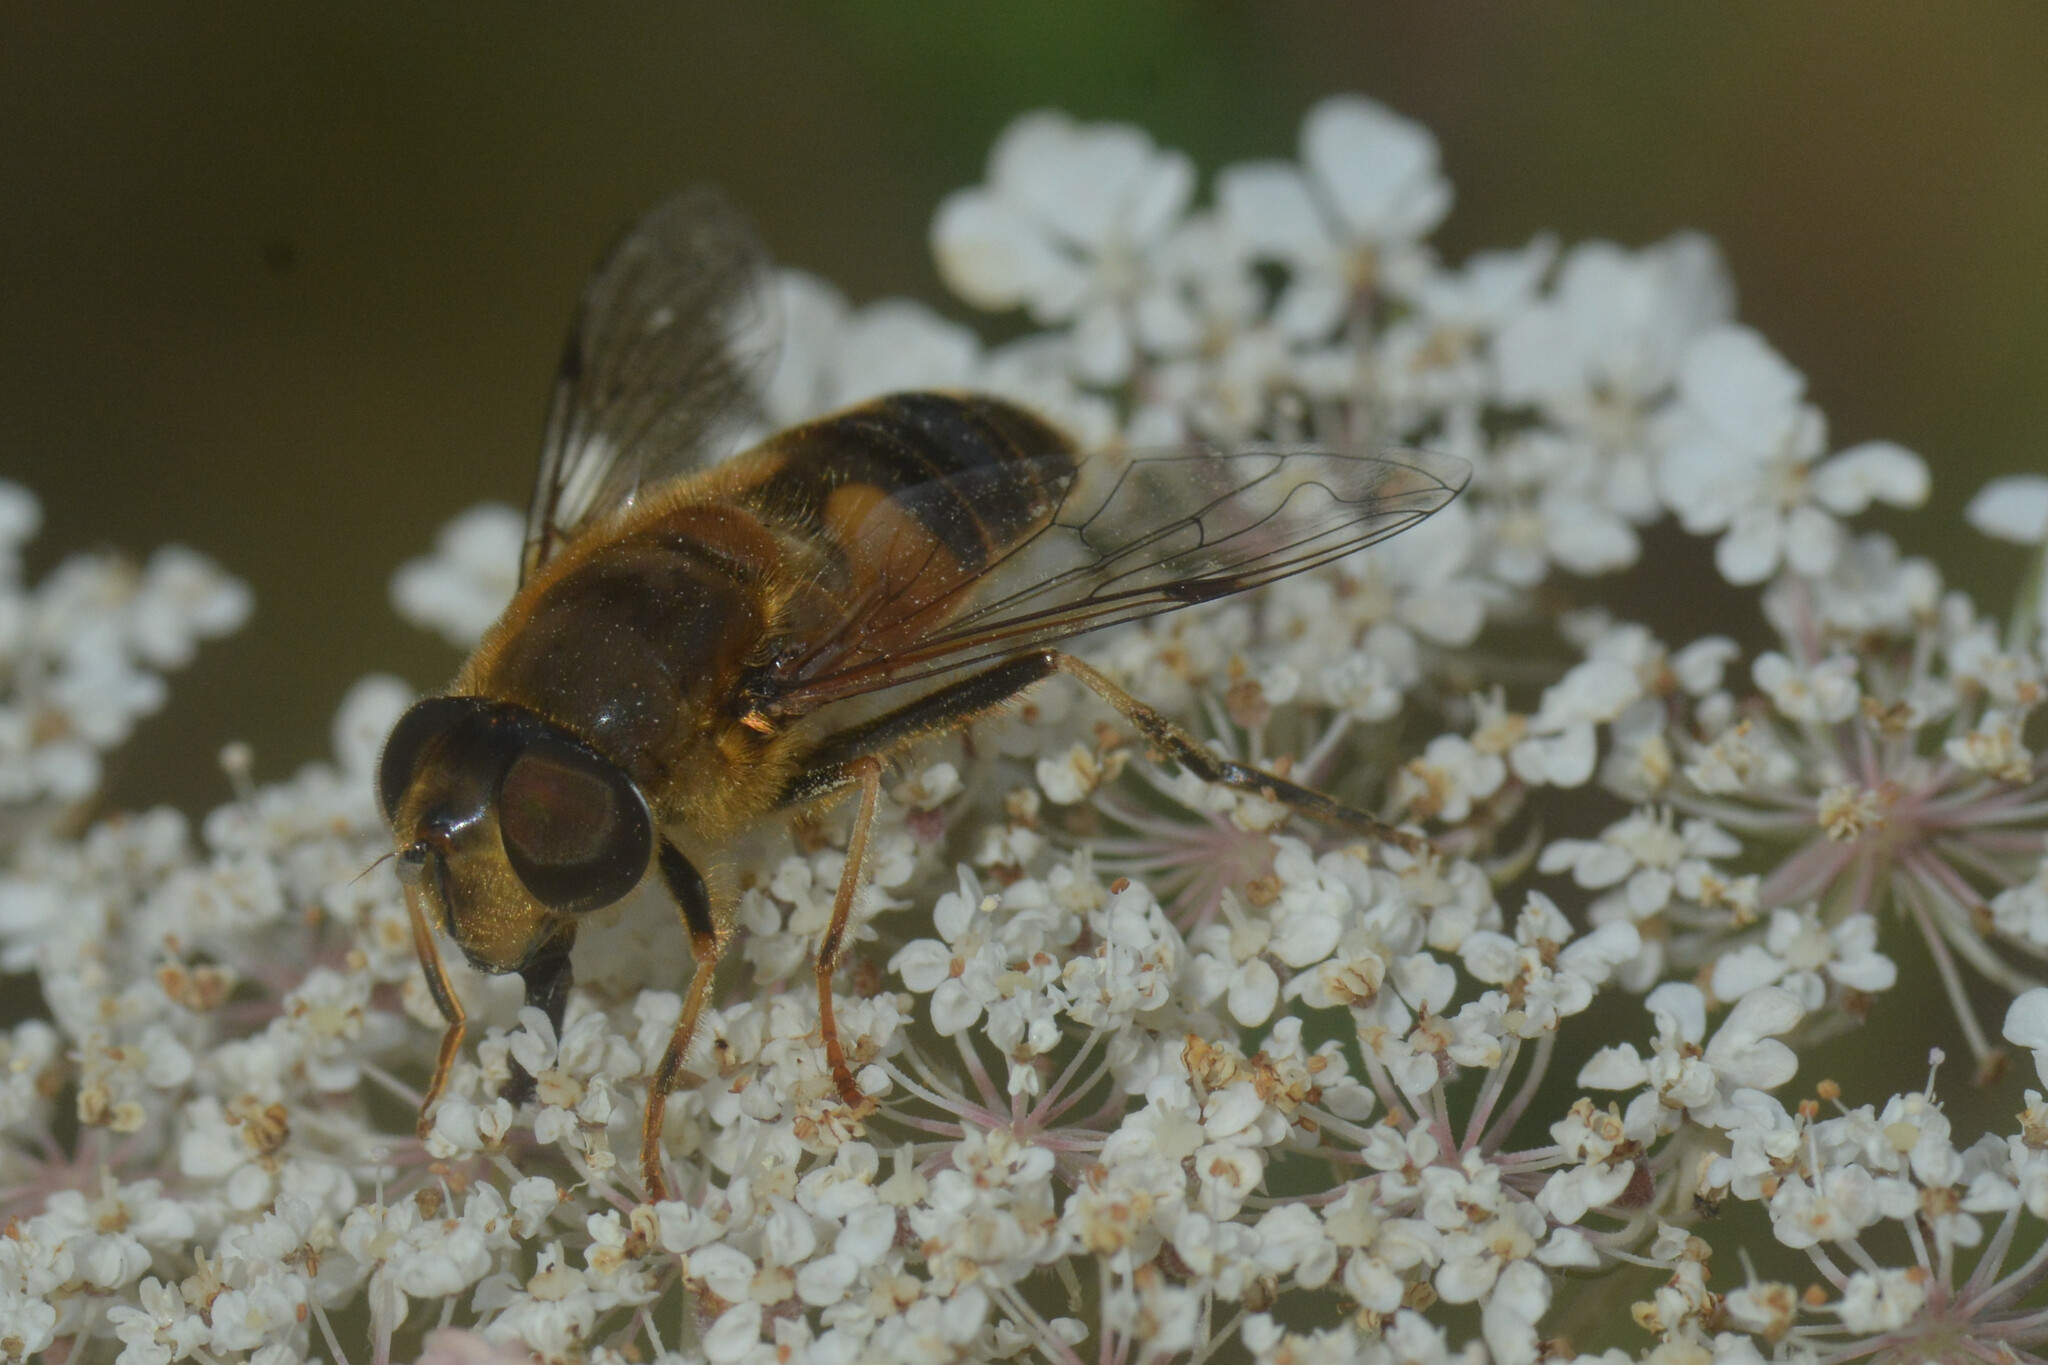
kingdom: Animalia
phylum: Arthropoda
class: Insecta
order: Diptera
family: Syrphidae
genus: Eristalis
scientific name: Eristalis pertinax
